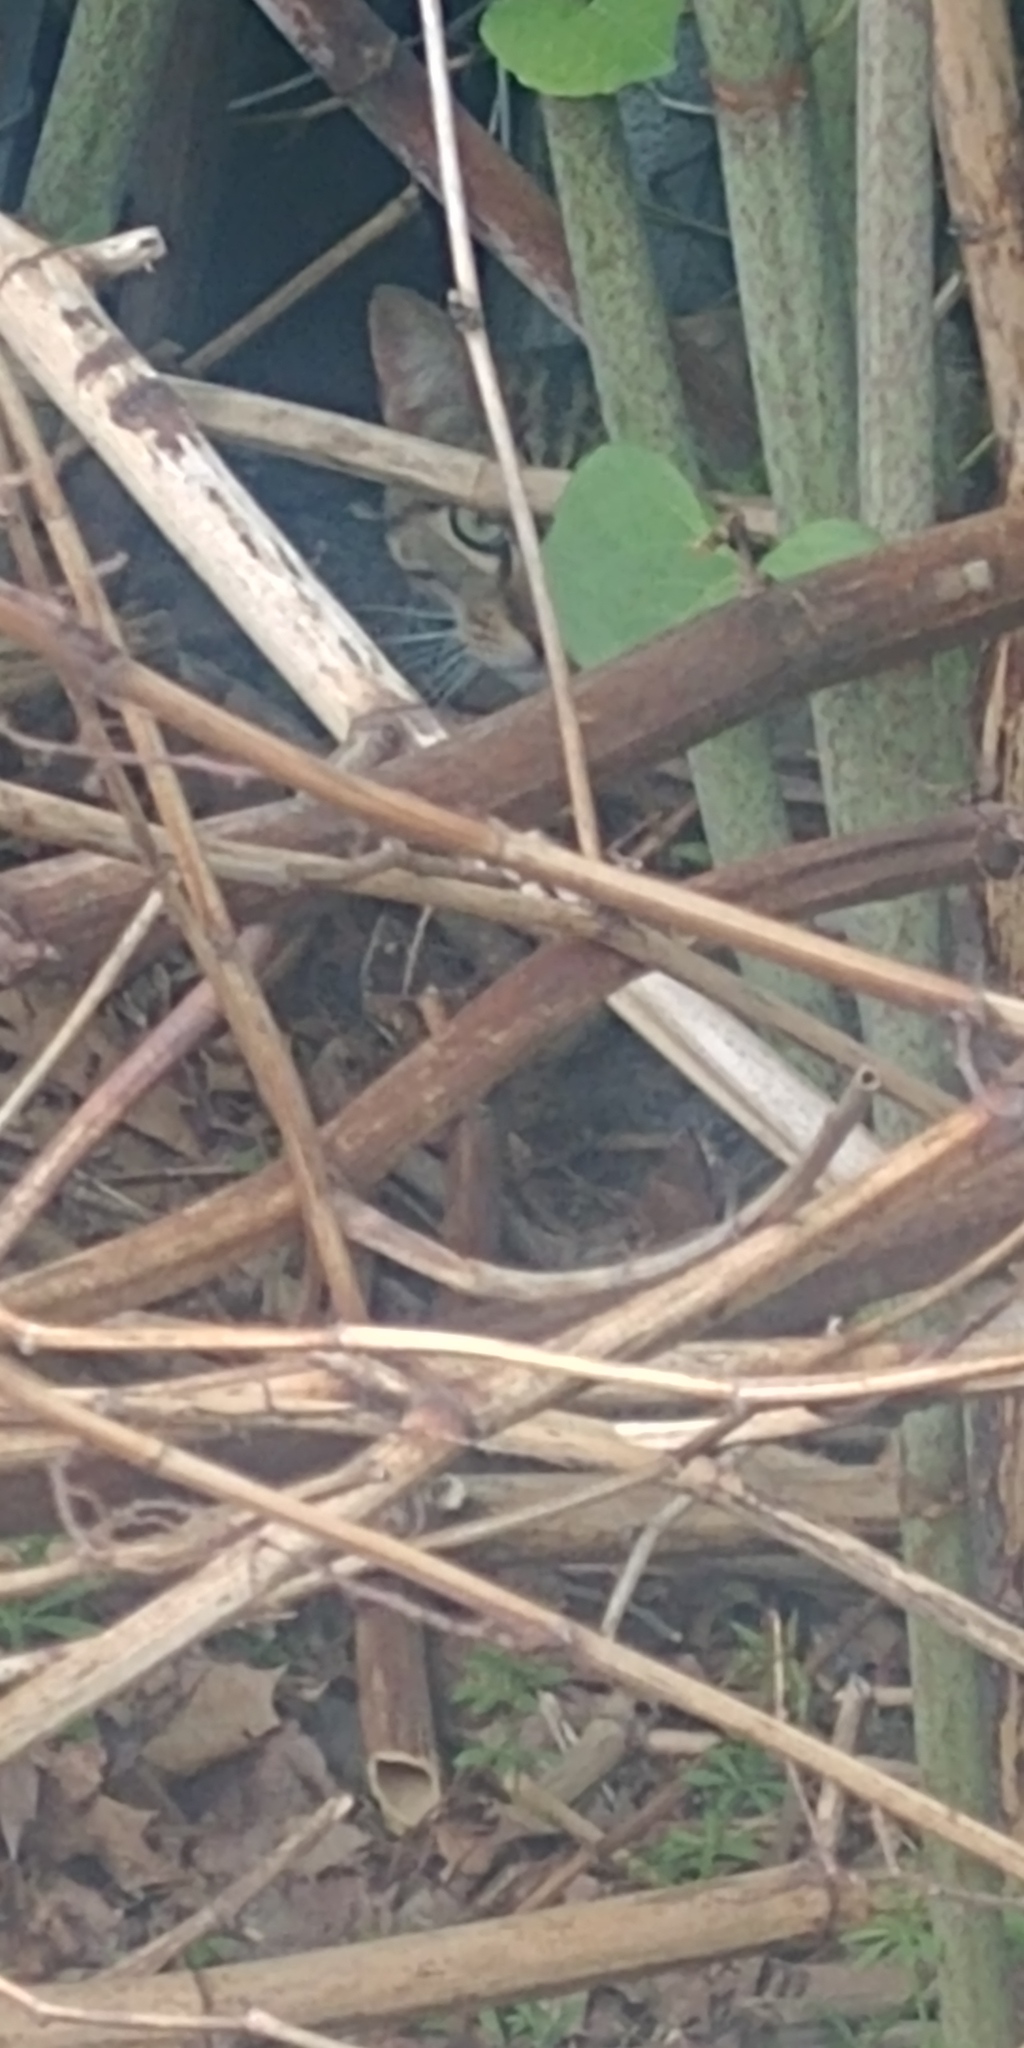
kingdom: Animalia
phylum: Chordata
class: Mammalia
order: Carnivora
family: Felidae
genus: Felis
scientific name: Felis catus
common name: Domestic cat
